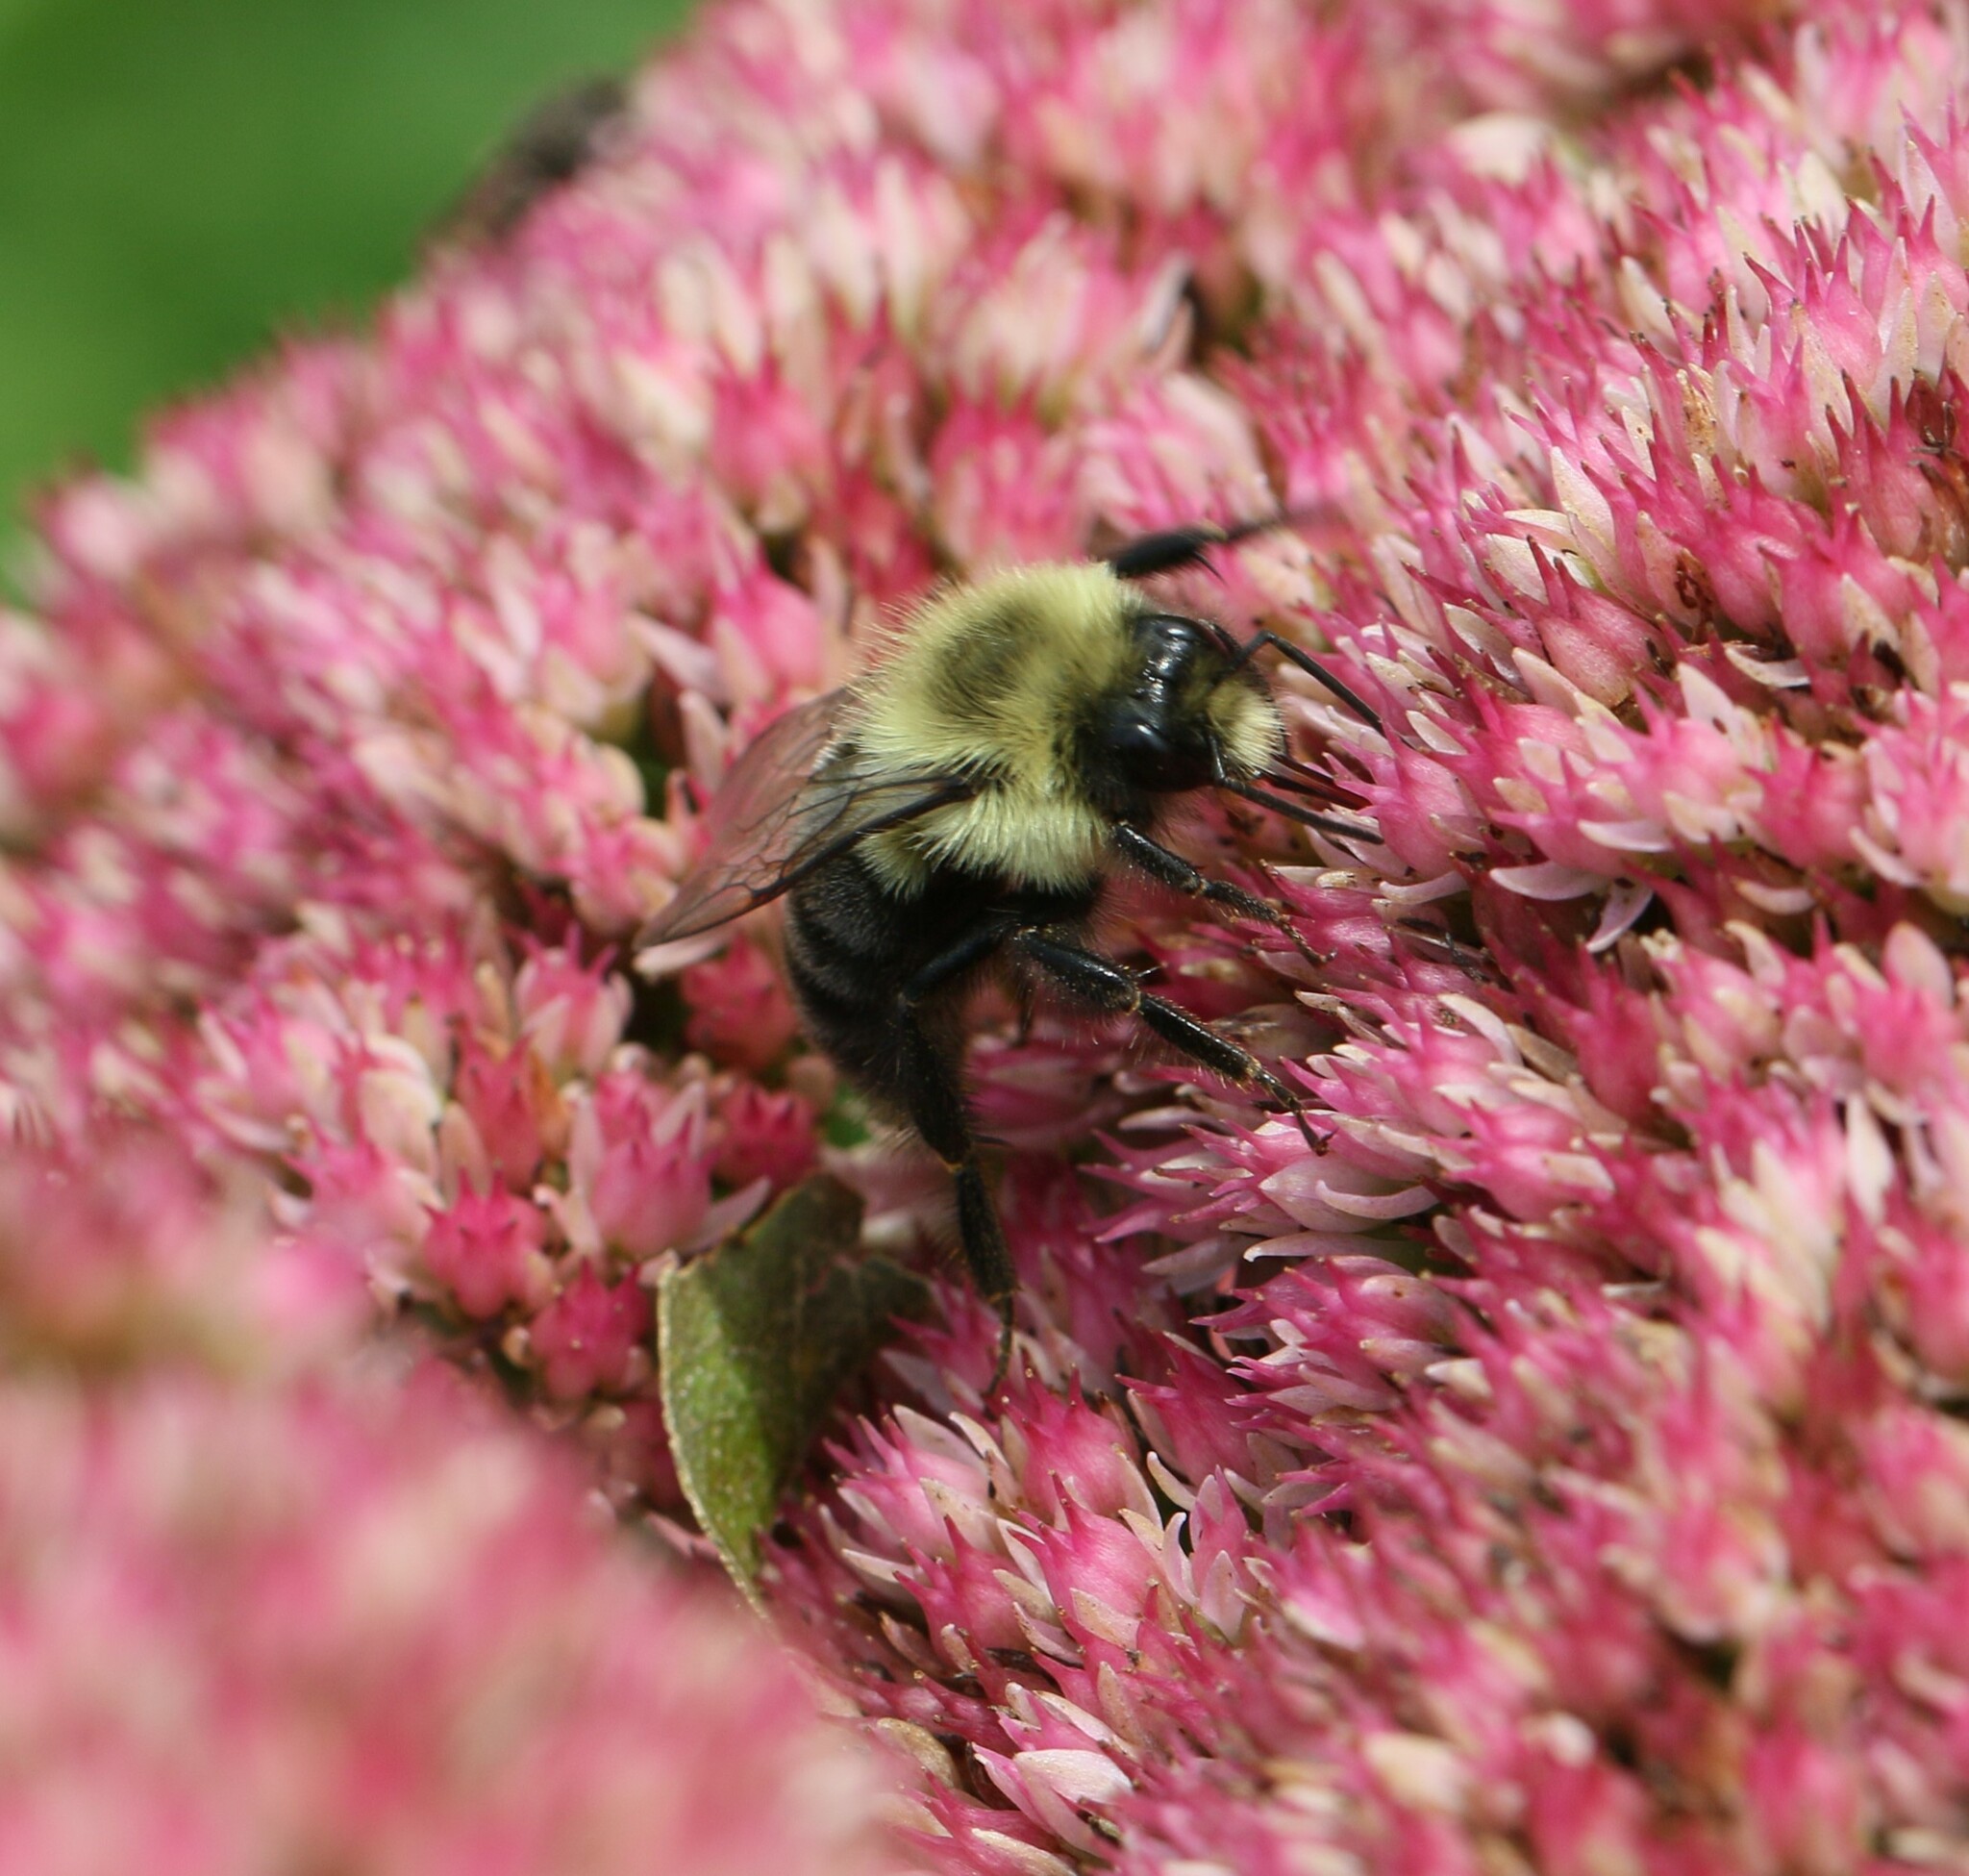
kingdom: Animalia
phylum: Arthropoda
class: Insecta
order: Hymenoptera
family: Apidae
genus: Bombus
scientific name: Bombus impatiens
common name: Common eastern bumble bee
